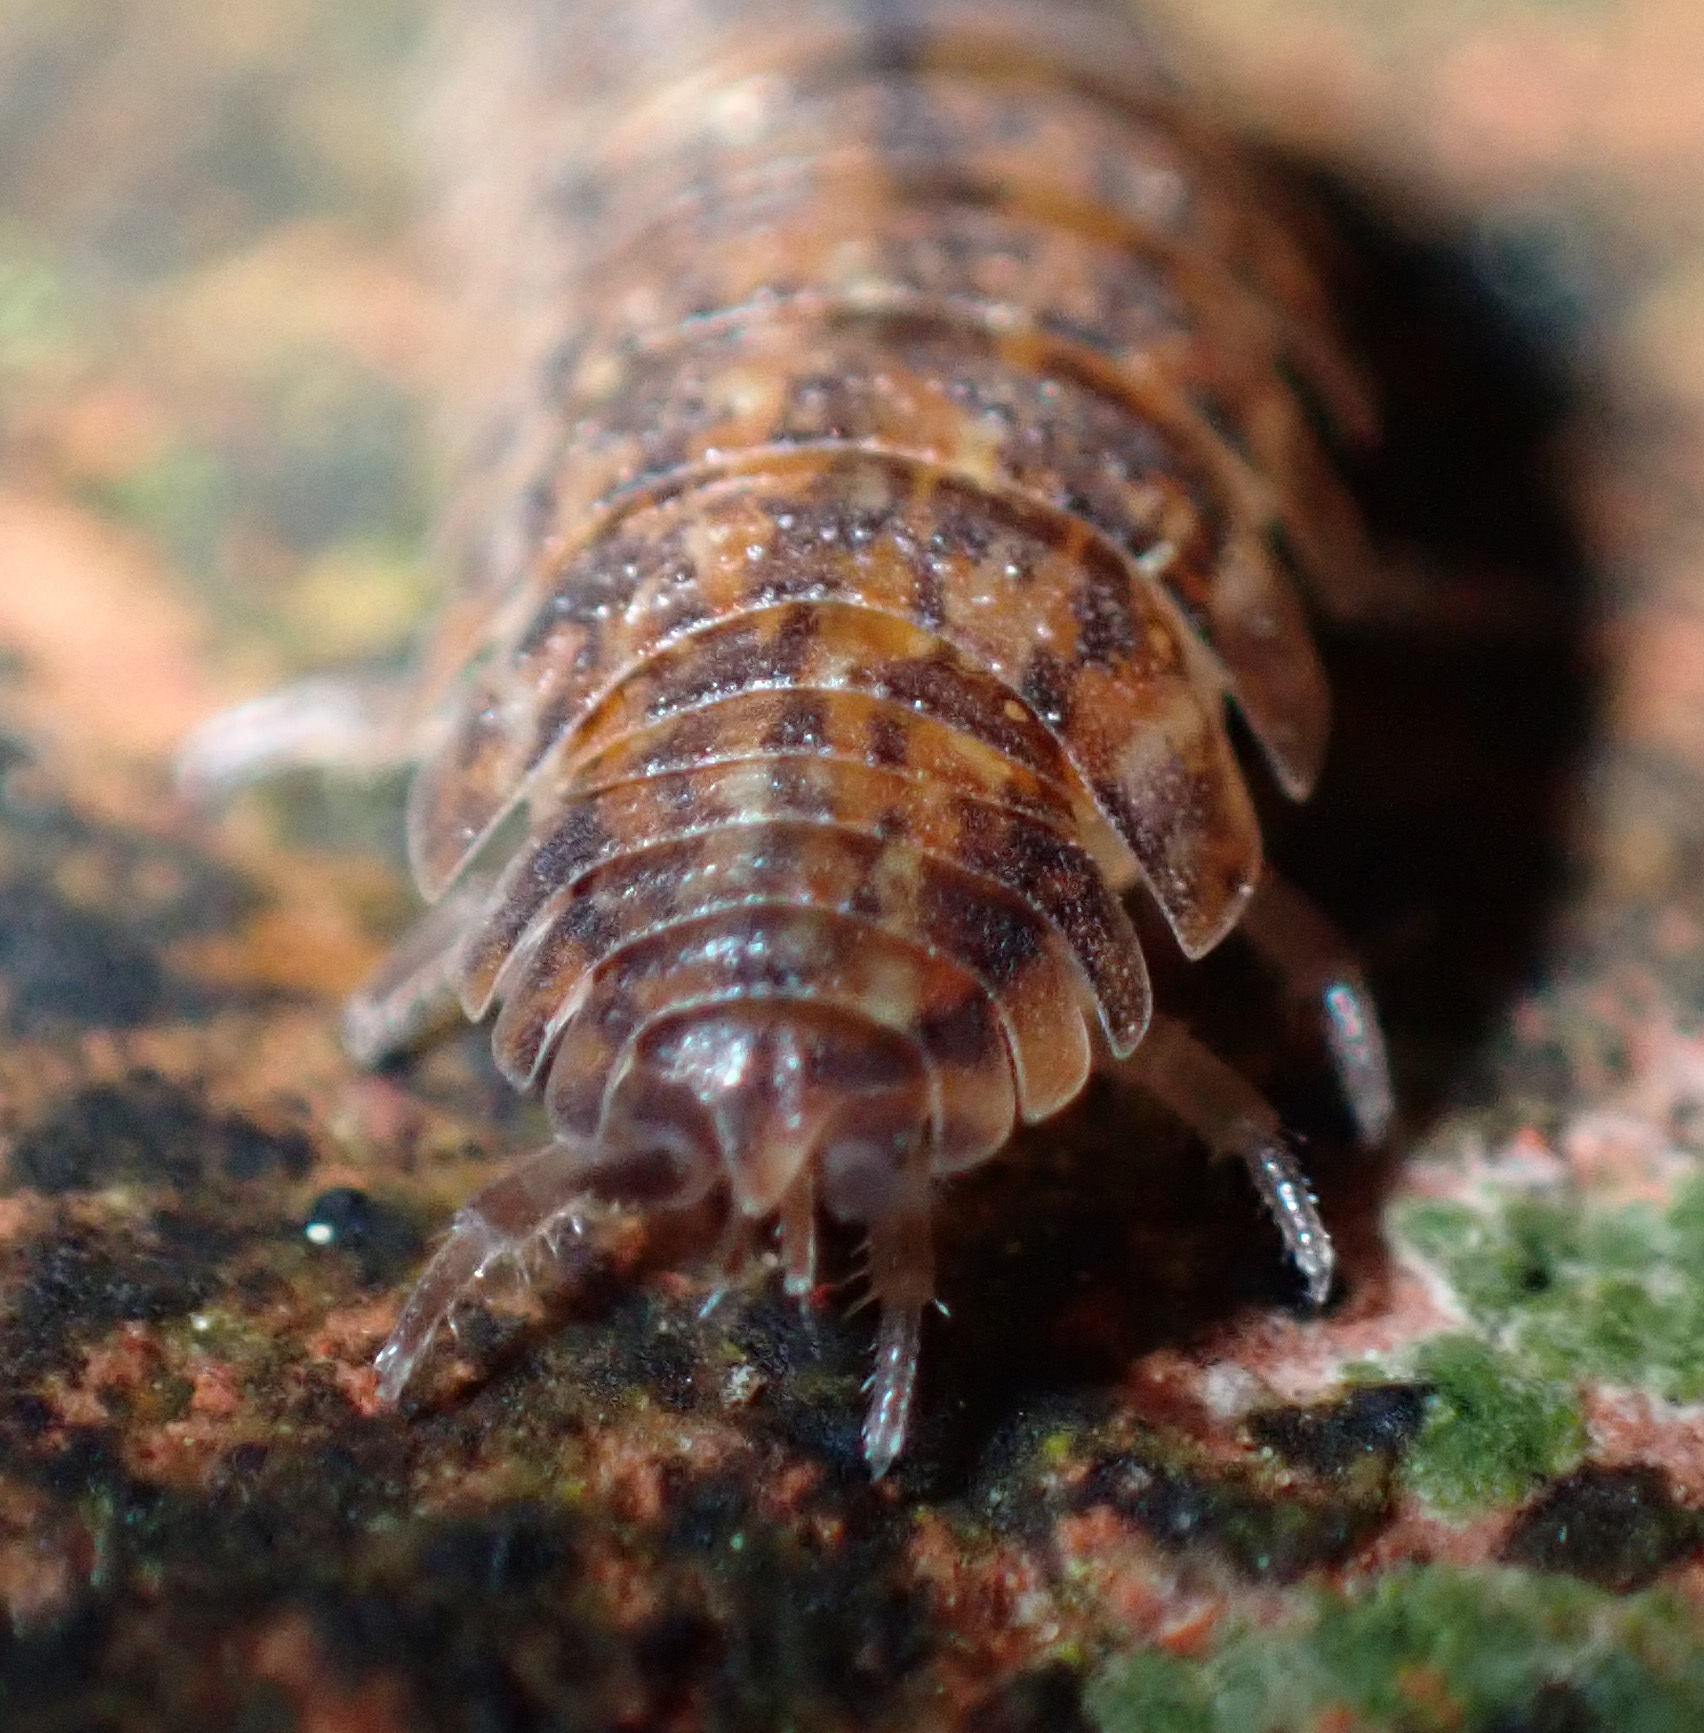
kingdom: Animalia
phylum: Arthropoda
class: Malacostraca
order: Isopoda
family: Porcellionidae
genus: Porcellio
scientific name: Porcellio scaber
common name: Common rough woodlouse
